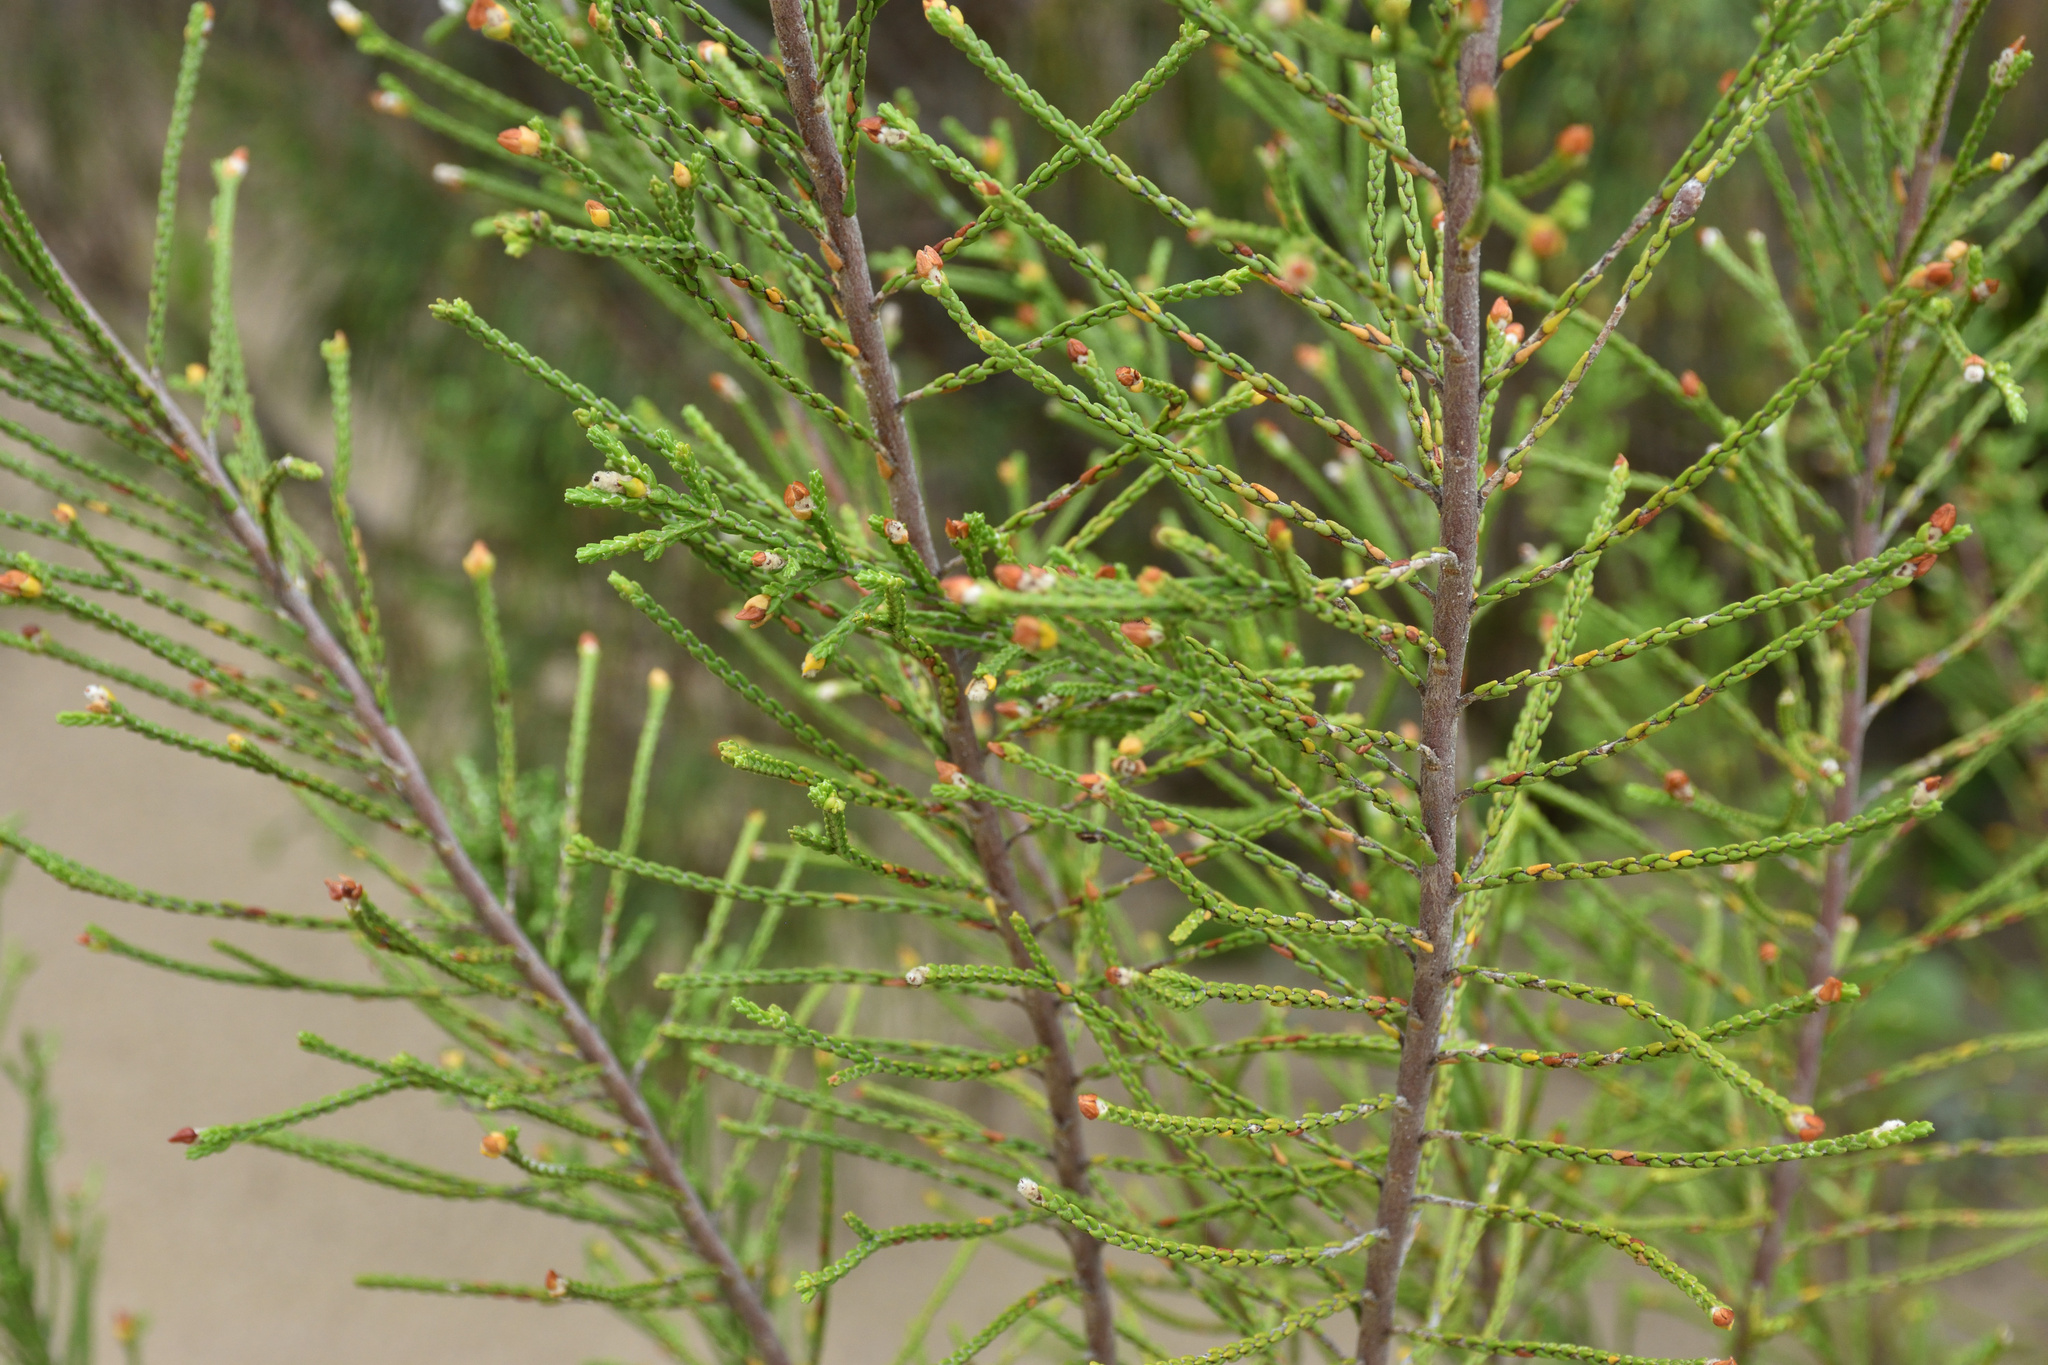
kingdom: Plantae
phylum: Tracheophyta
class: Magnoliopsida
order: Malvales
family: Thymelaeaceae
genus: Passerina
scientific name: Passerina rigida
